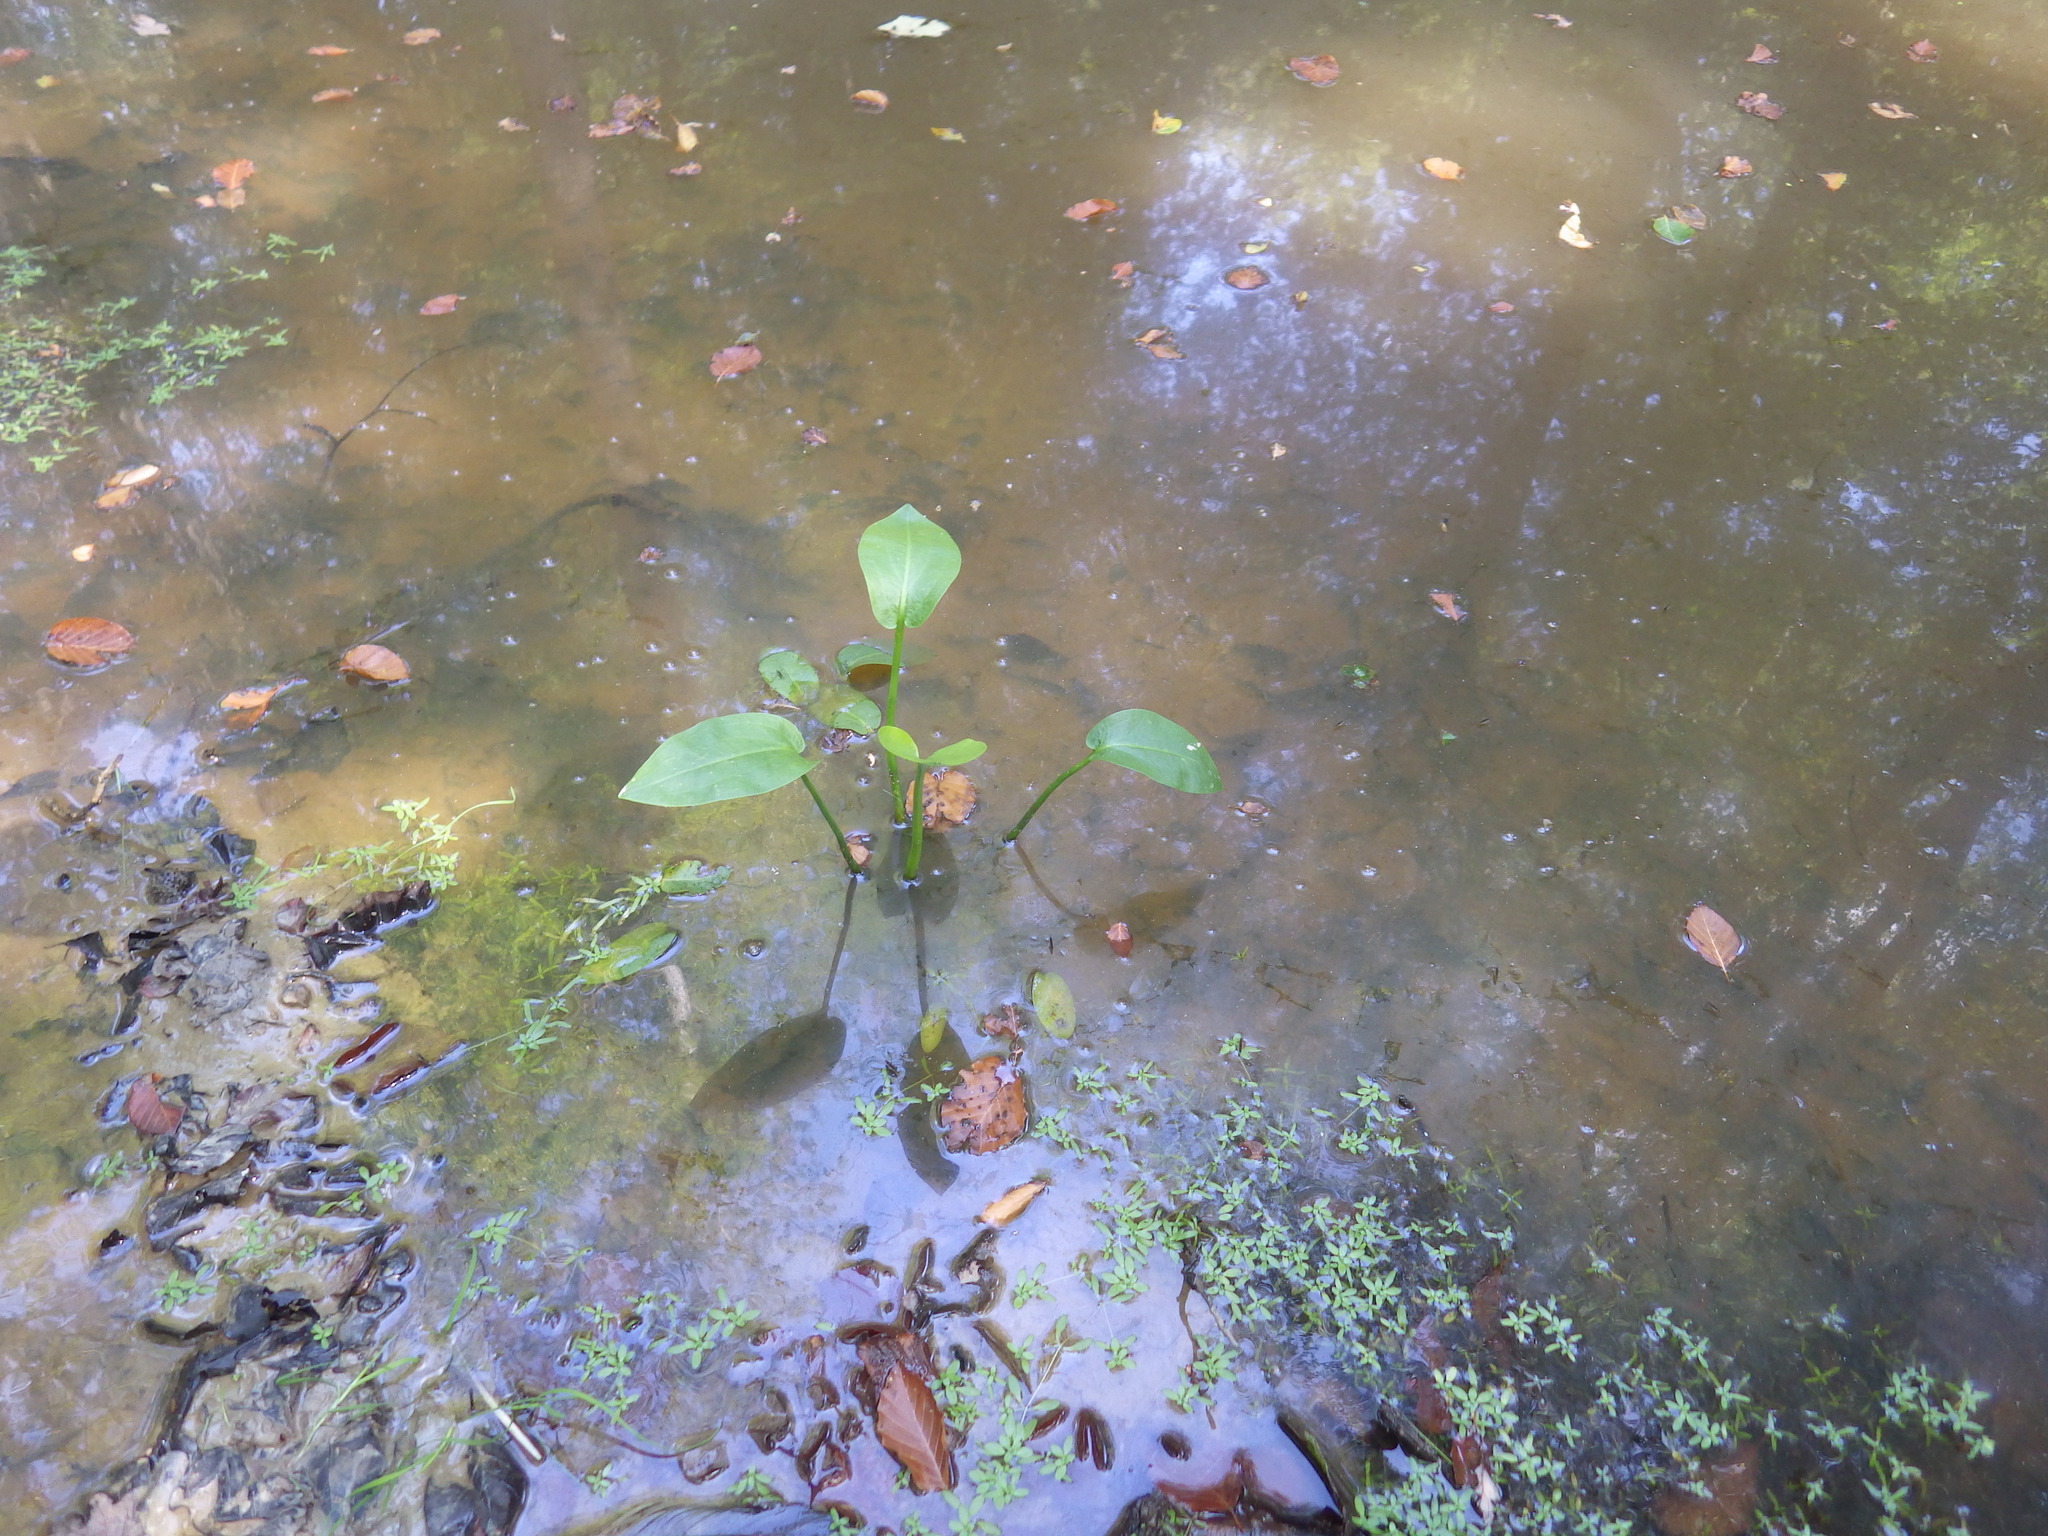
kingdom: Plantae
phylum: Tracheophyta
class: Liliopsida
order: Alismatales
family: Alismataceae
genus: Alisma
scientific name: Alisma plantago-aquatica
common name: Water-plantain
